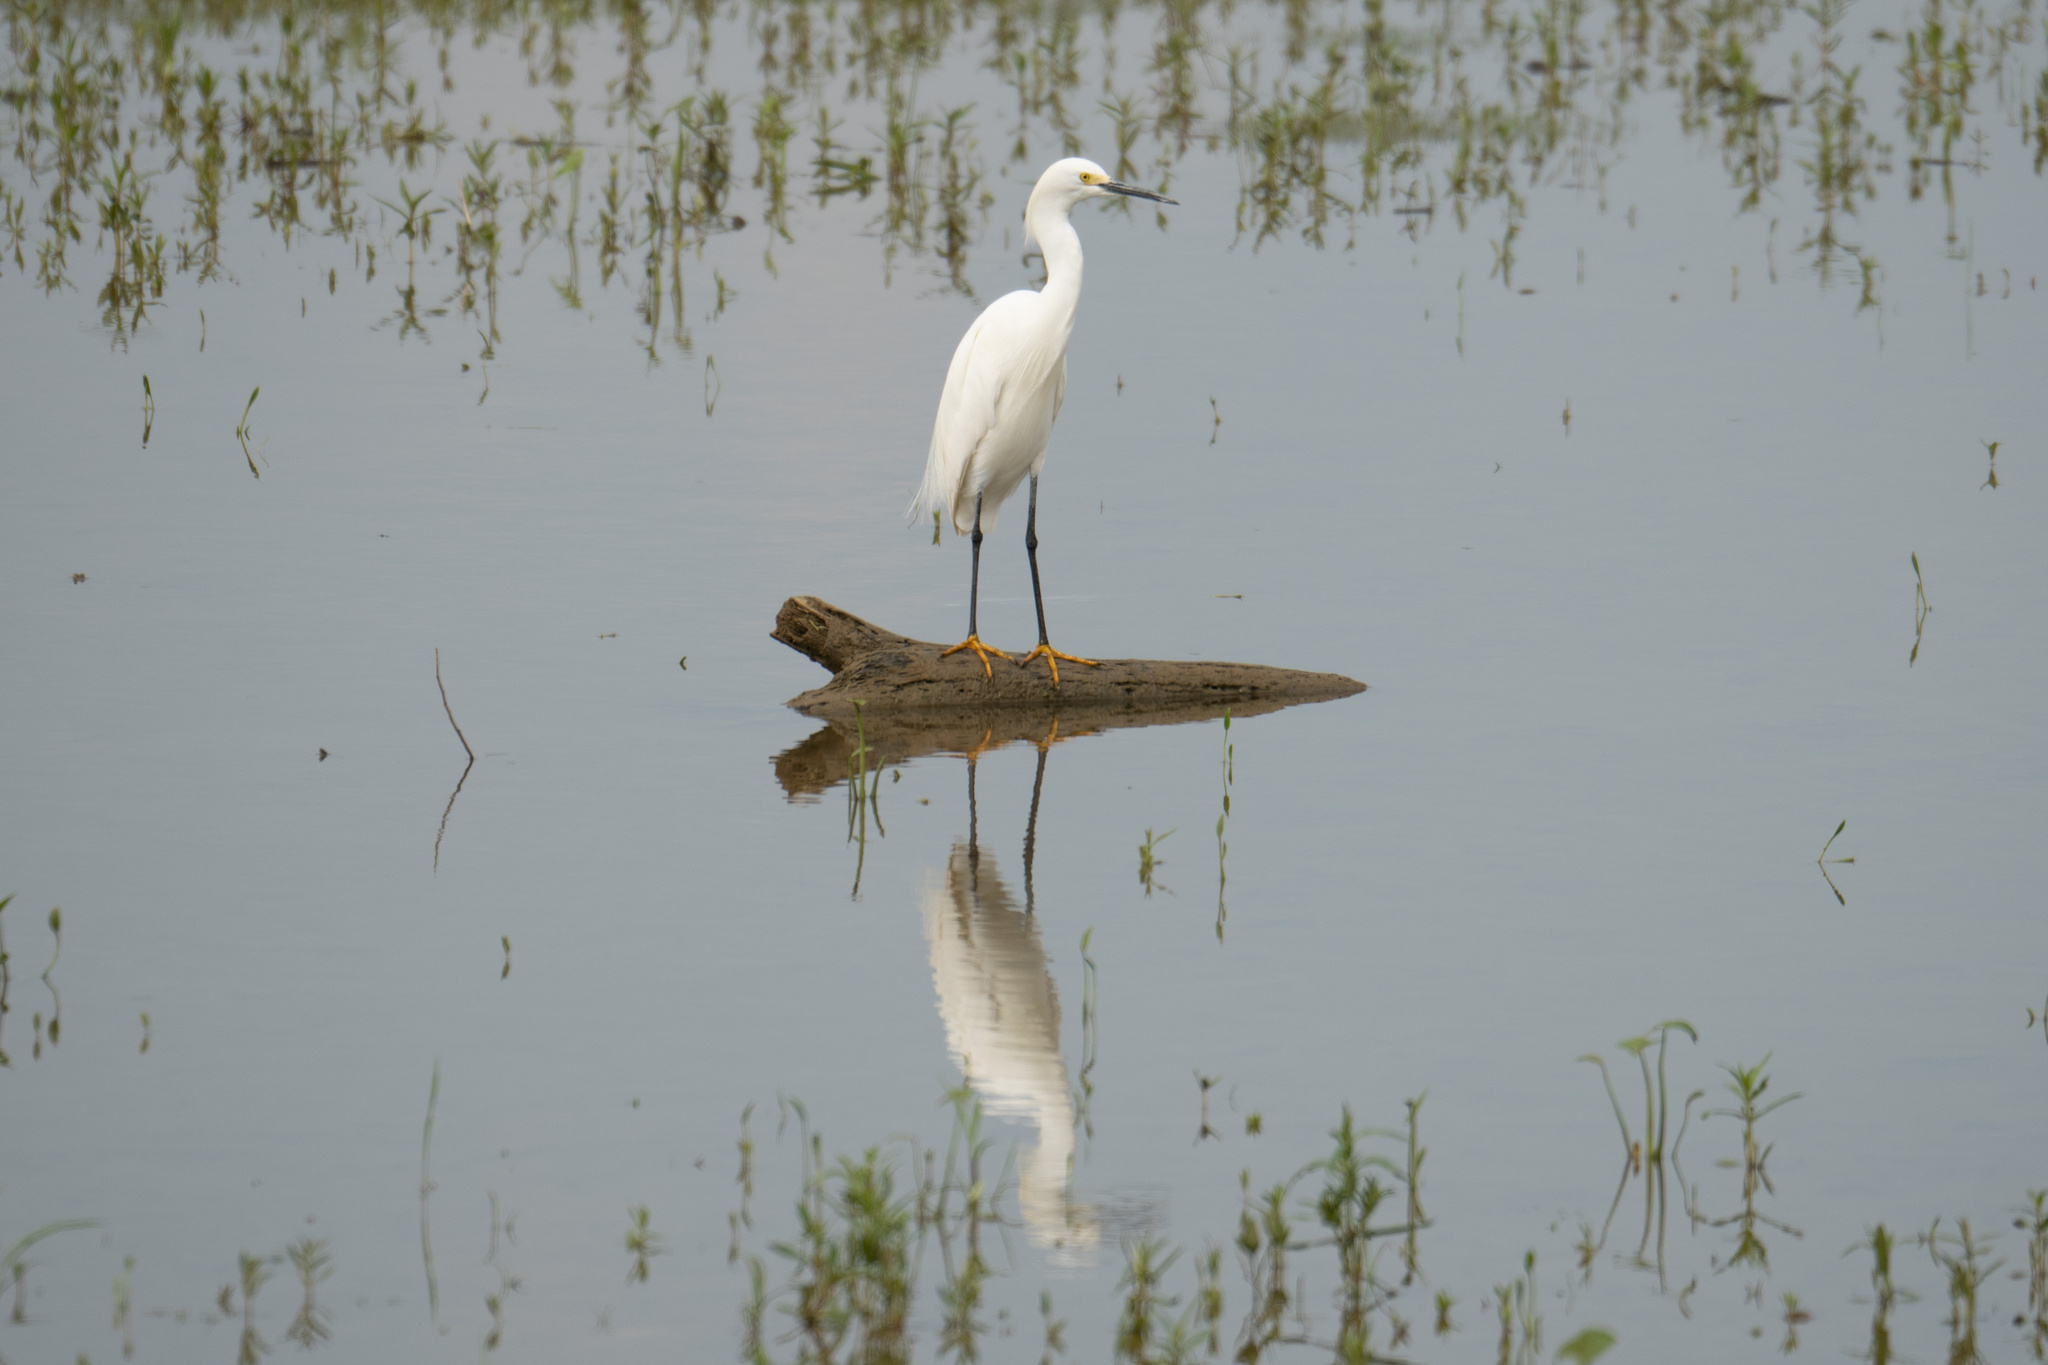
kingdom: Animalia
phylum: Chordata
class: Aves
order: Pelecaniformes
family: Ardeidae
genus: Egretta
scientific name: Egretta thula
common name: Snowy egret
